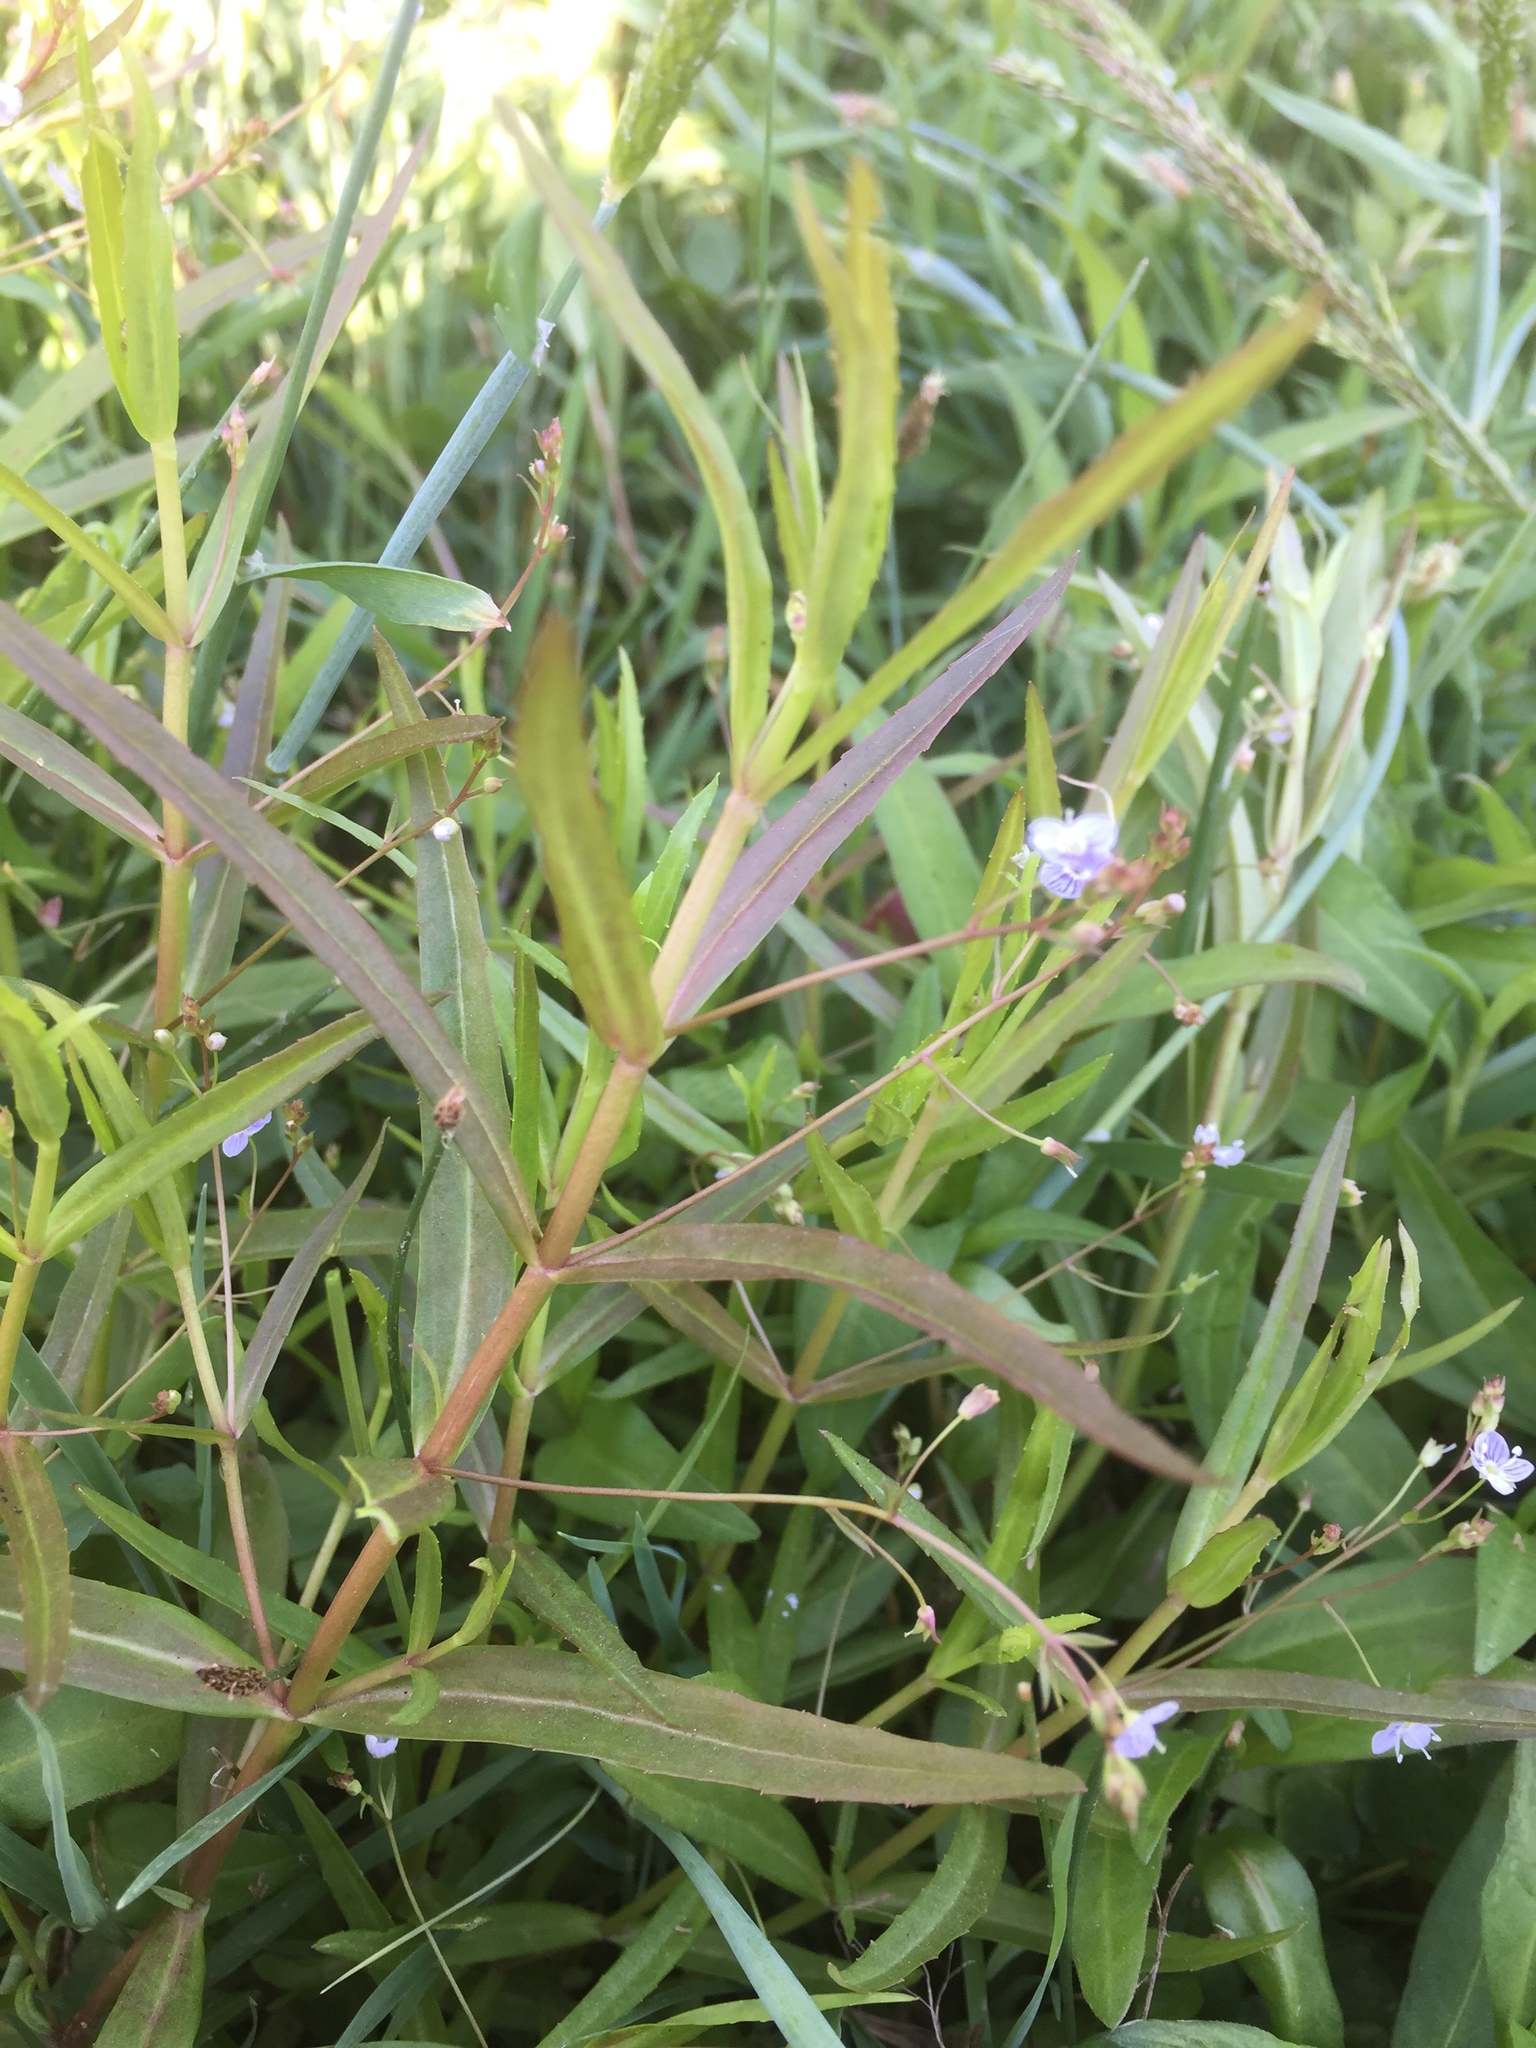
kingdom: Plantae
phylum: Tracheophyta
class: Magnoliopsida
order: Lamiales
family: Plantaginaceae
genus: Veronica
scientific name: Veronica scutellata
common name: Marsh speedwell
